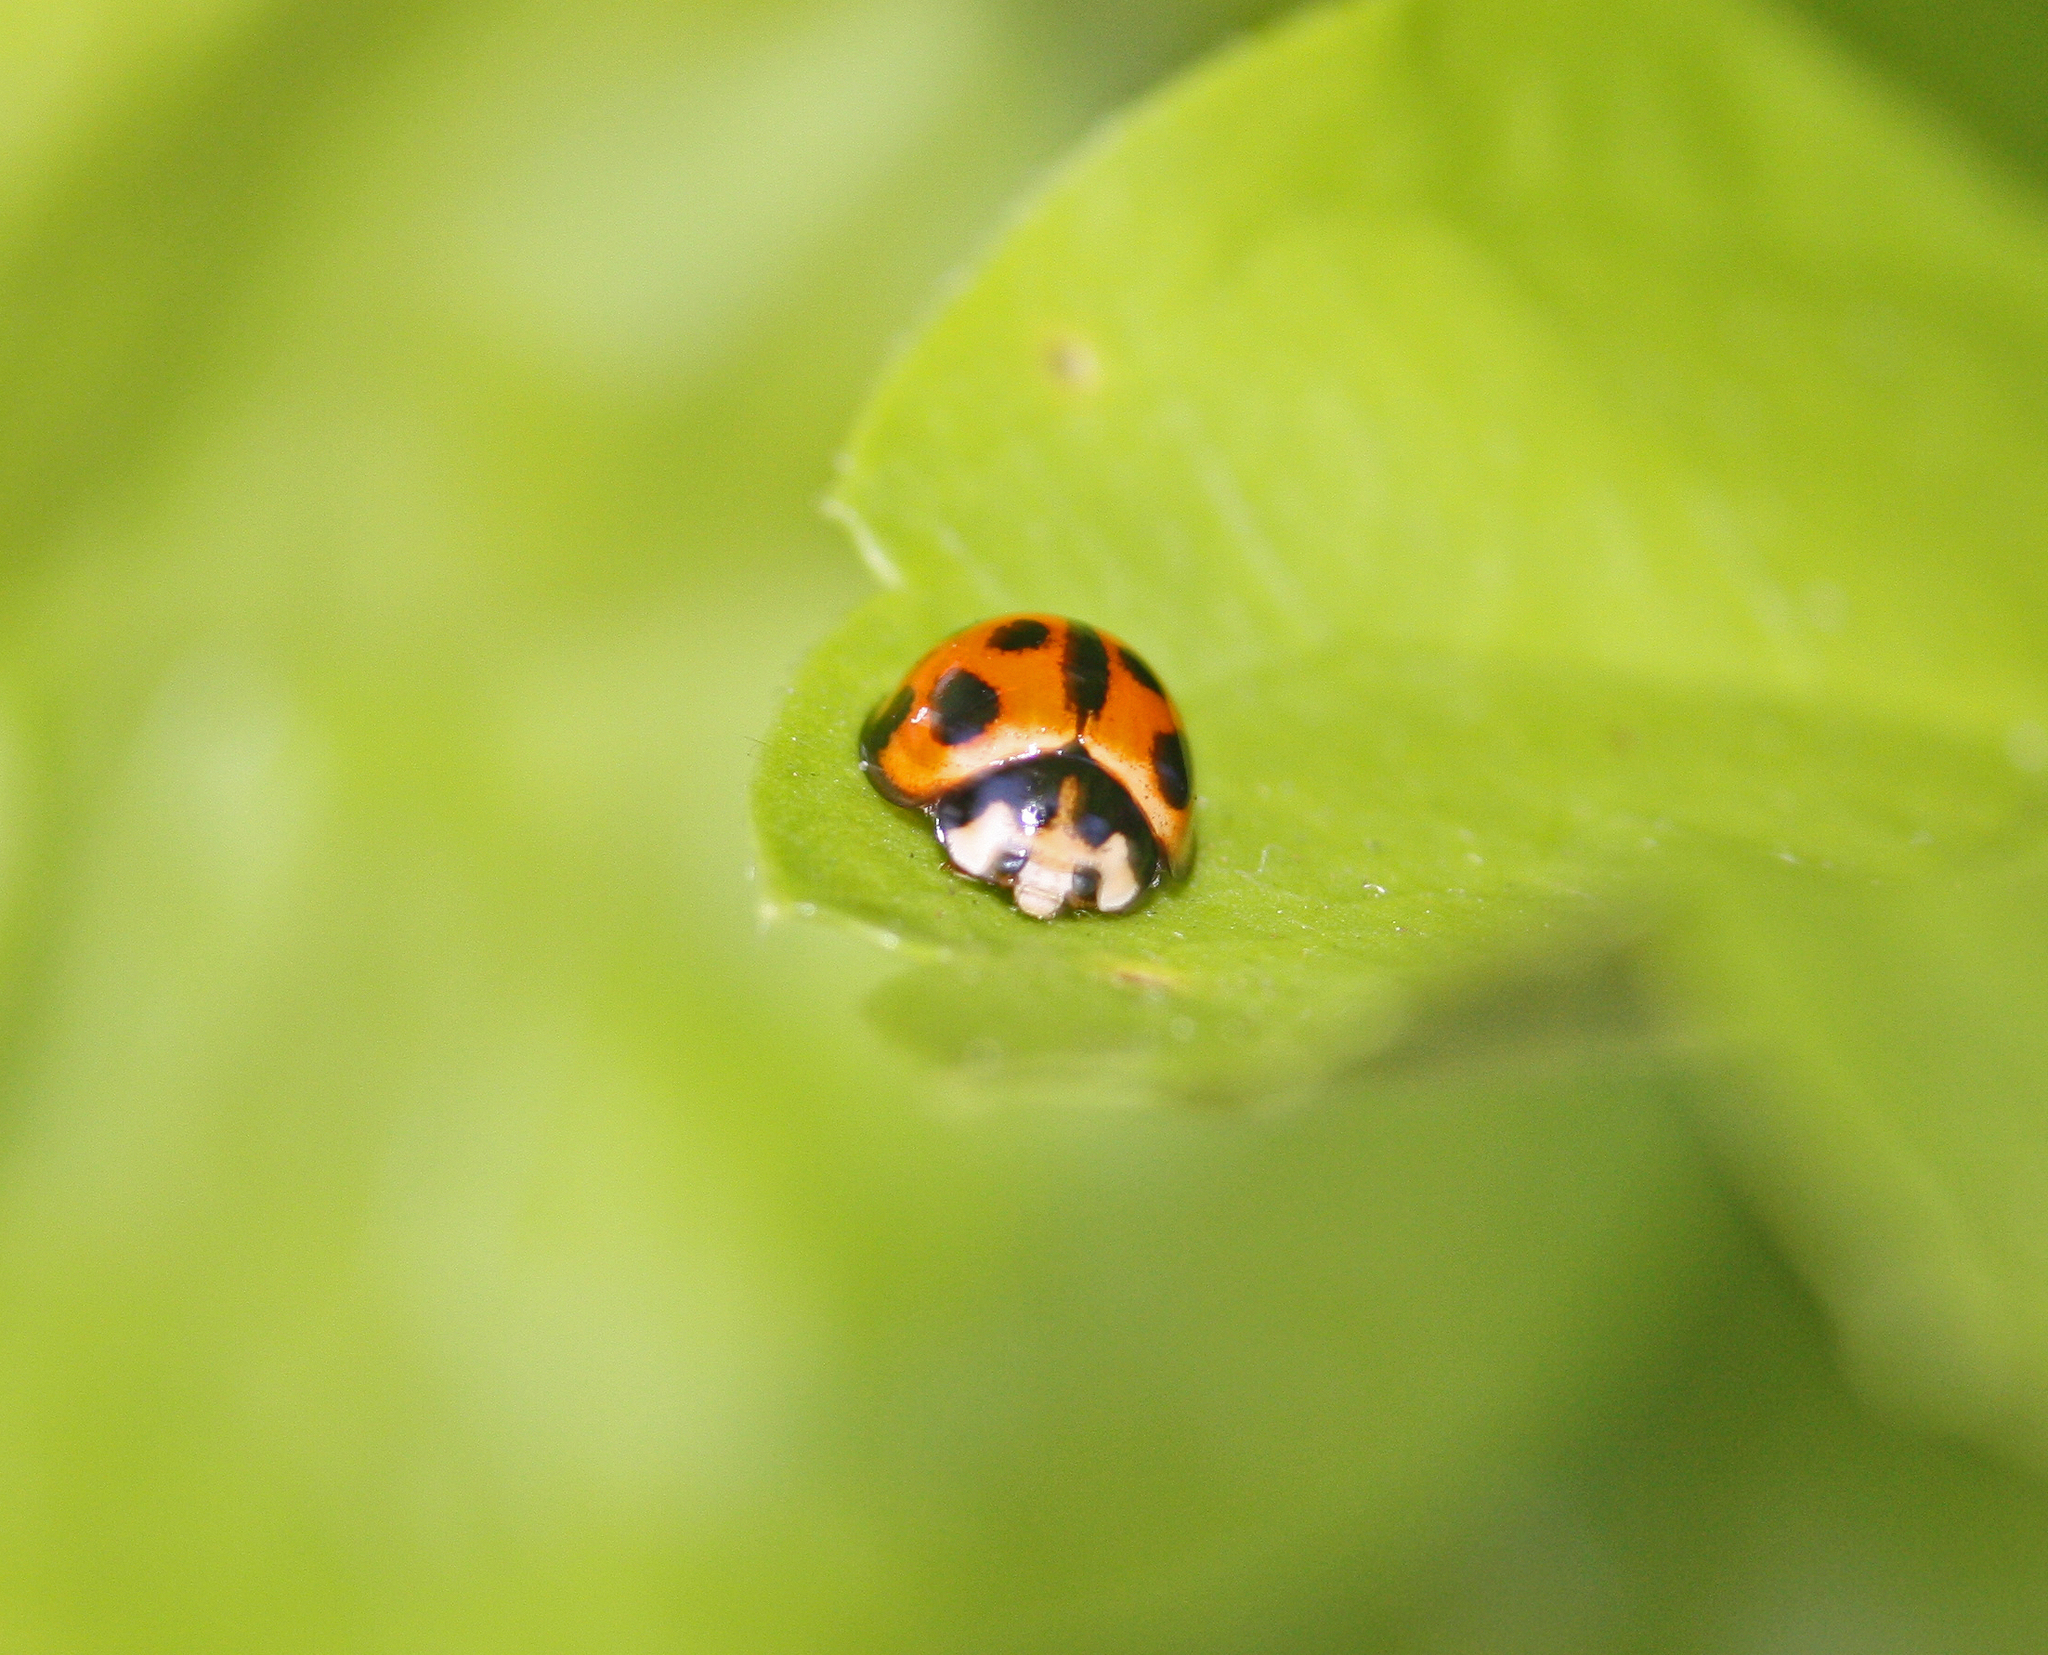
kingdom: Animalia
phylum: Arthropoda
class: Insecta
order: Coleoptera
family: Coccinellidae
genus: Coelophora
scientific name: Coelophora inaequalis
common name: Common australian lady beetle
